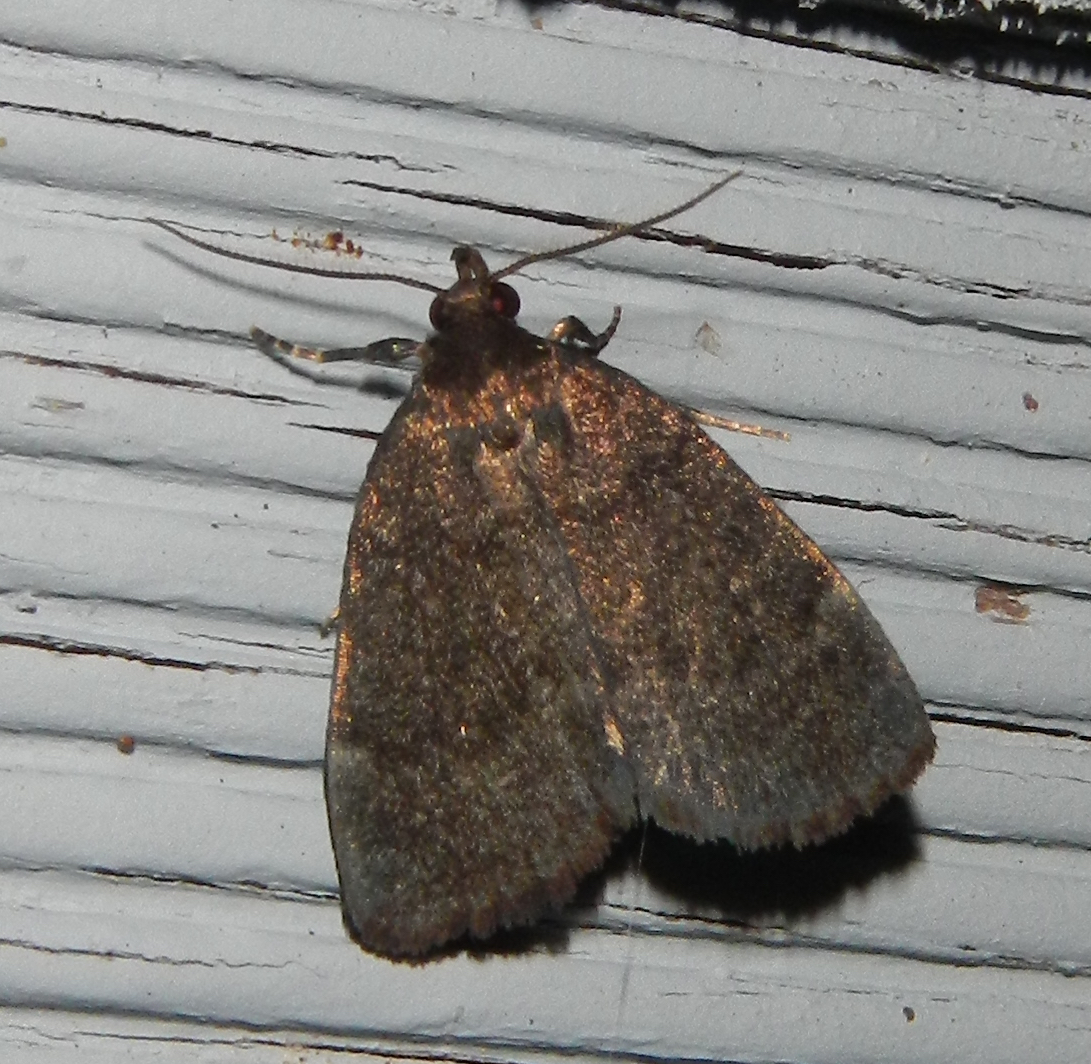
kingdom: Animalia
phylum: Arthropoda
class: Insecta
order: Lepidoptera
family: Erebidae
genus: Idia
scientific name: Idia rotundalis
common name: Rotund idia moth
